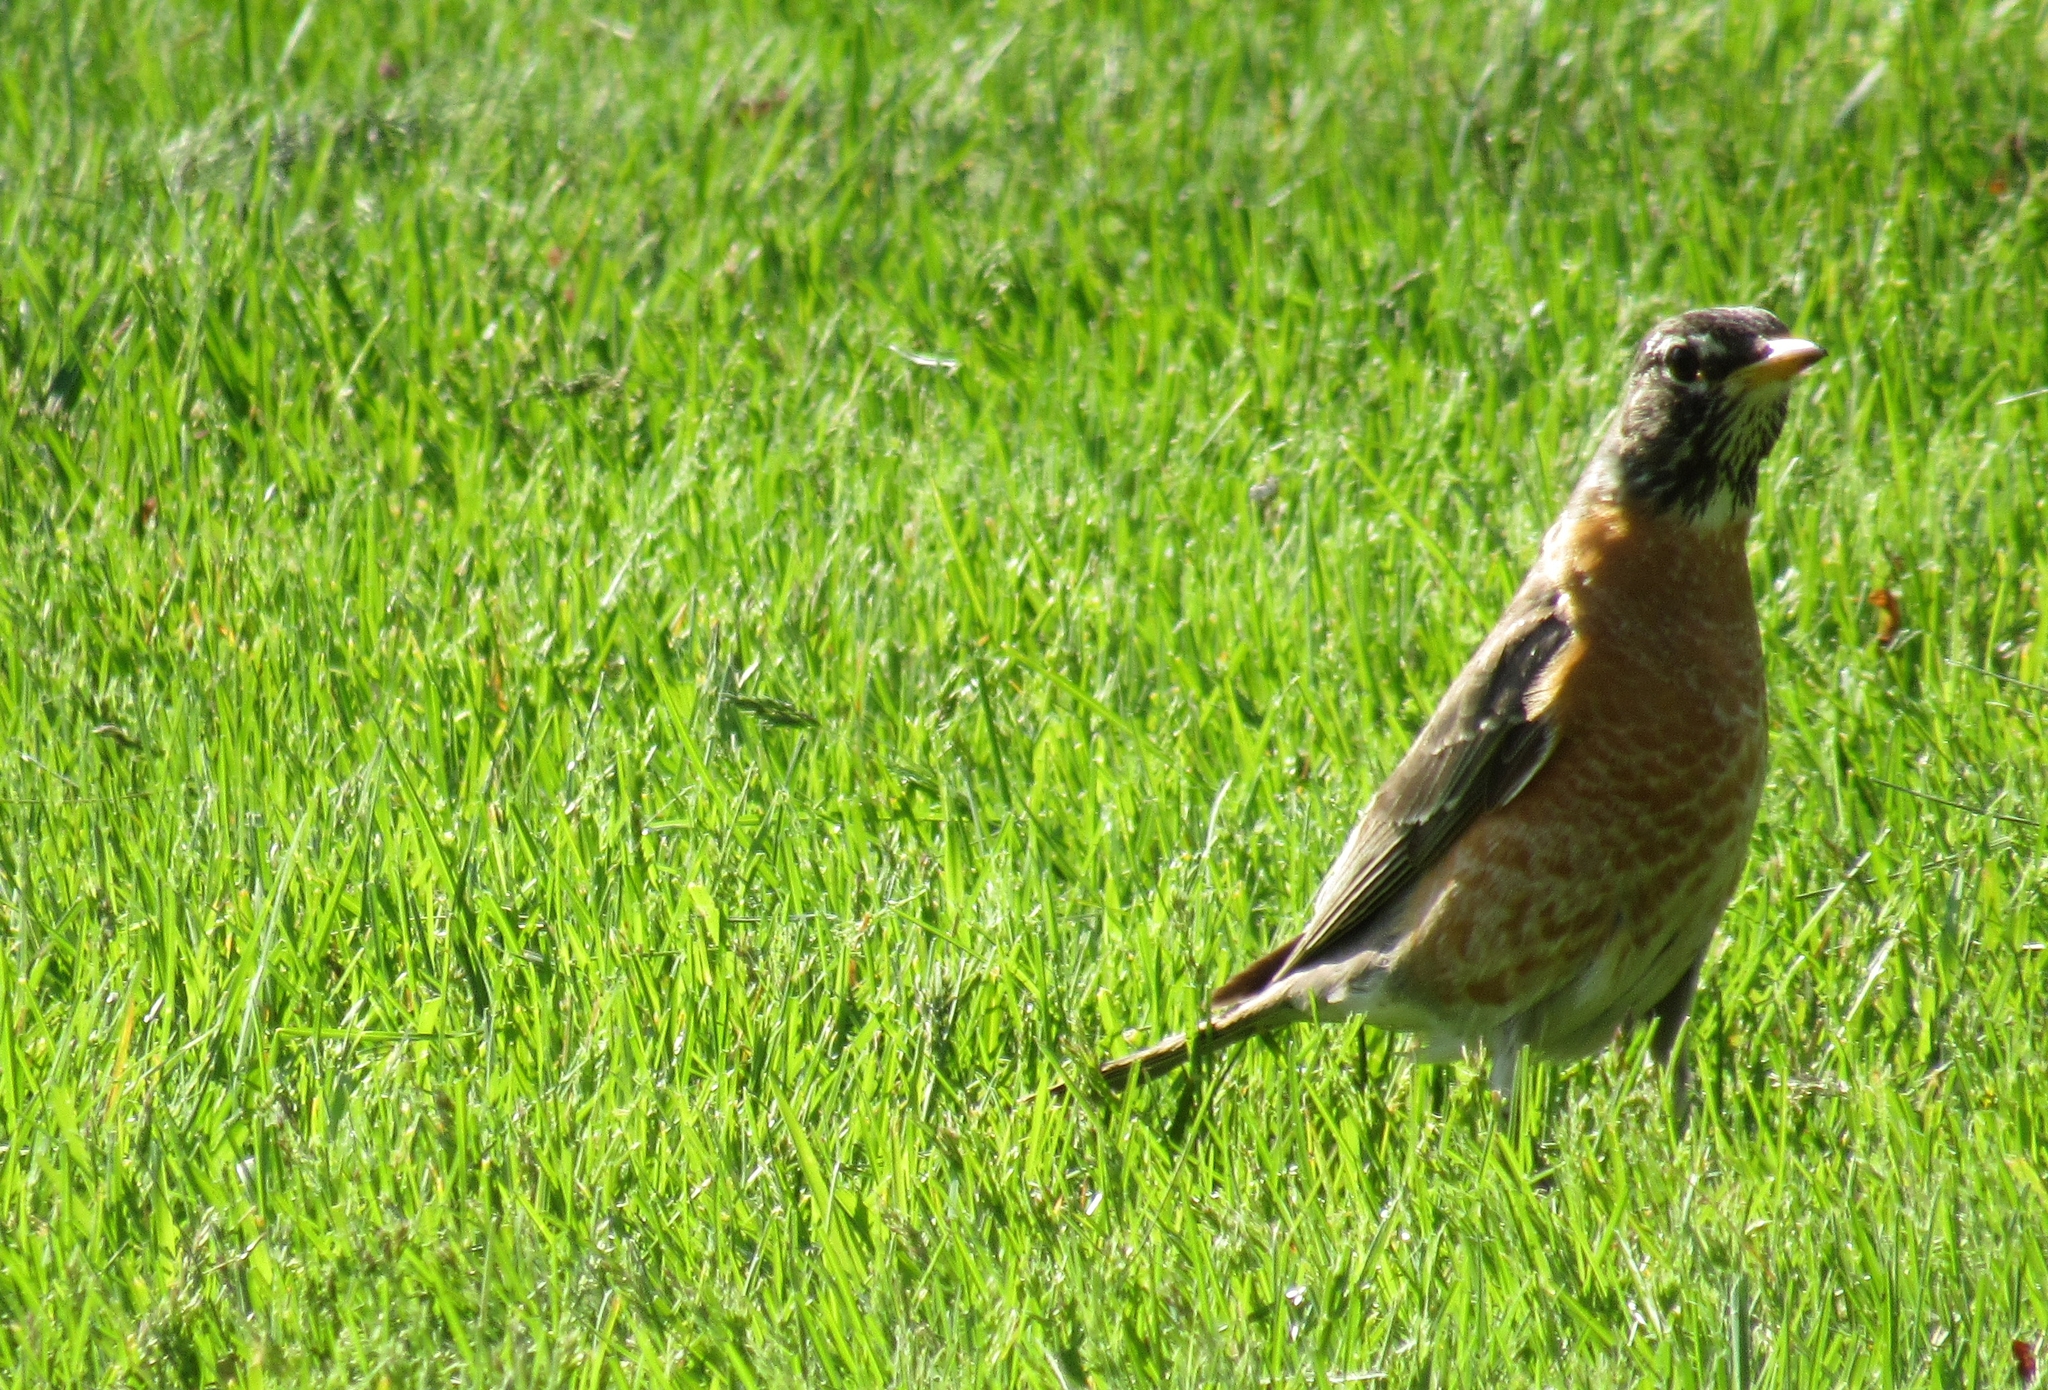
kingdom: Animalia
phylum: Chordata
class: Aves
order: Passeriformes
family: Turdidae
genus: Turdus
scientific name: Turdus migratorius
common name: American robin
